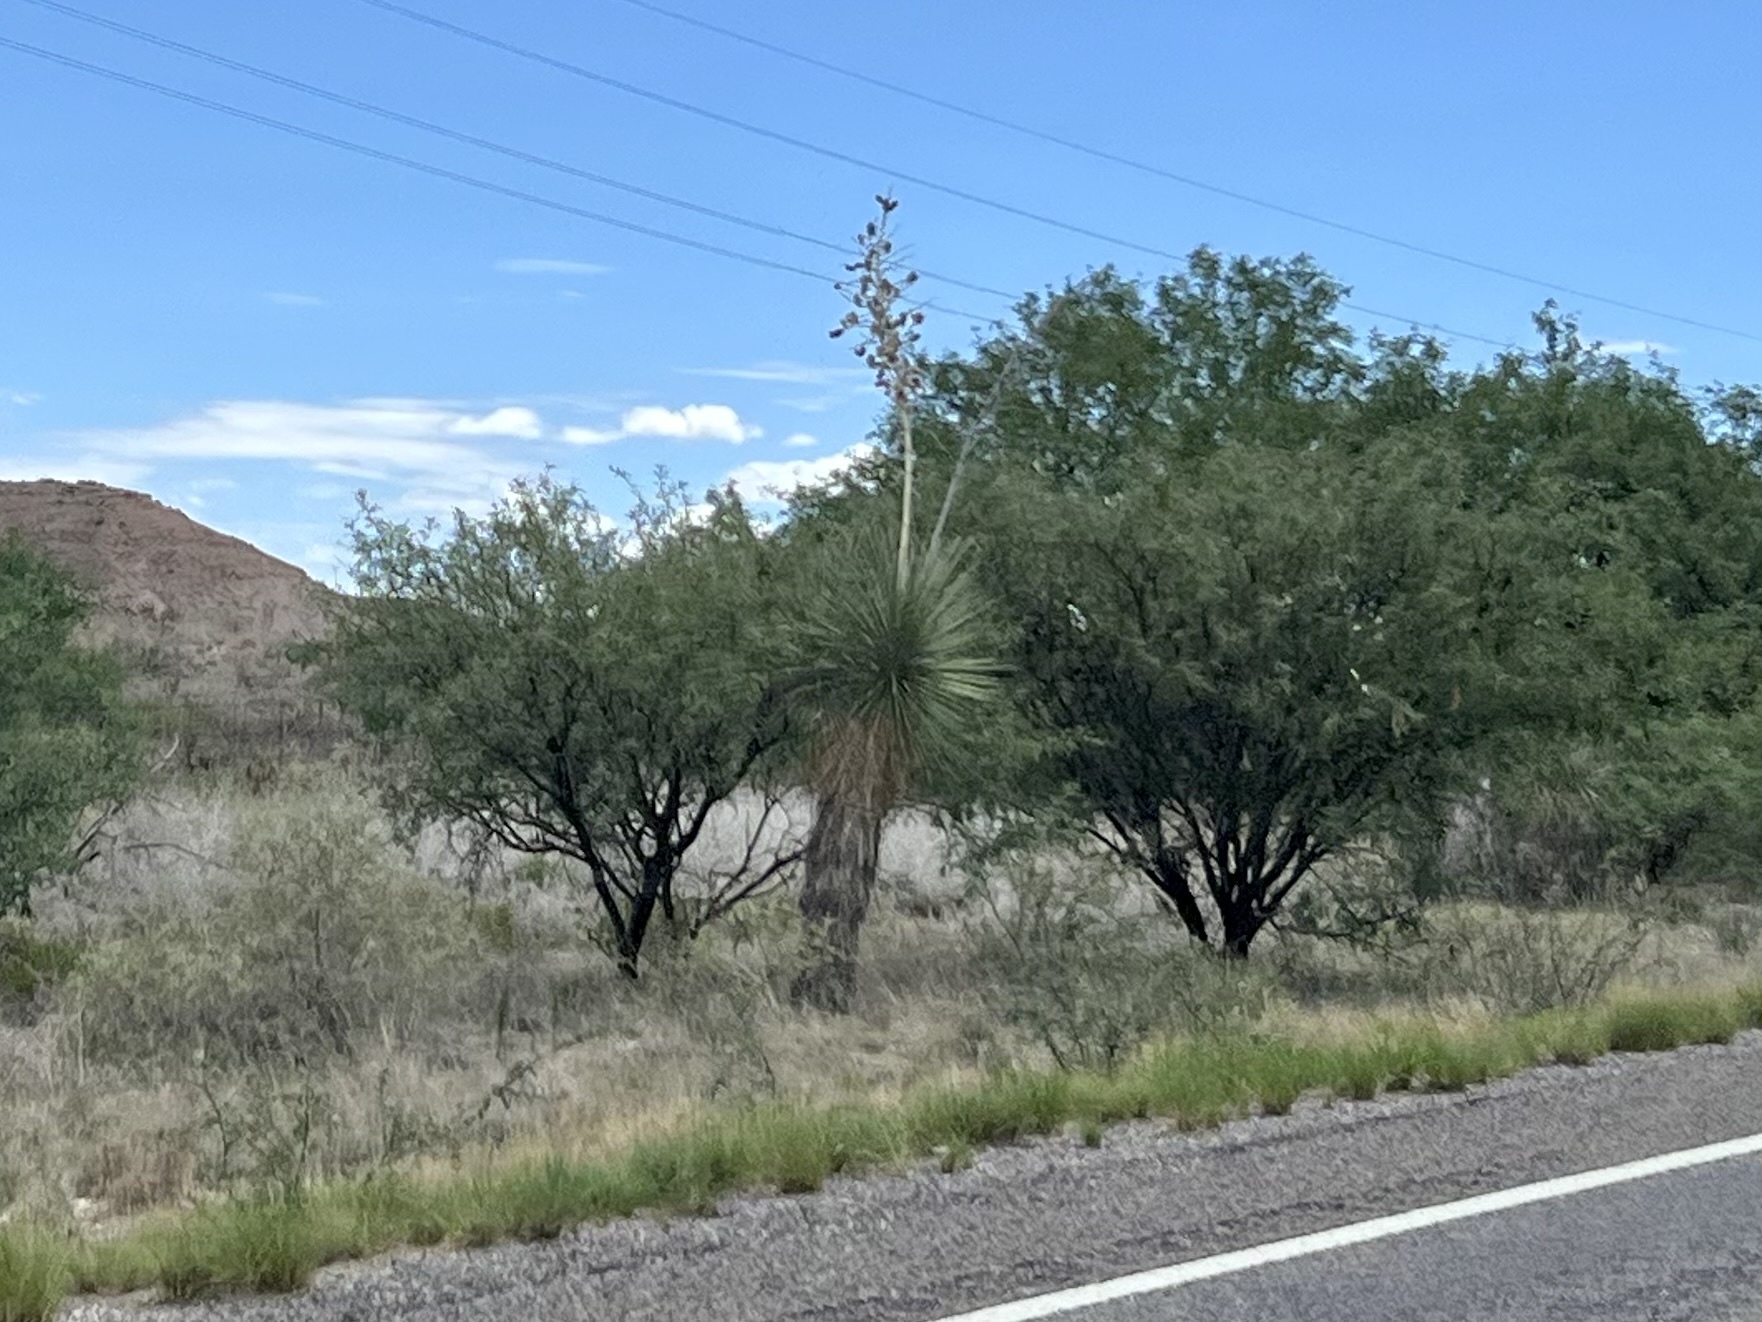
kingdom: Plantae
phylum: Tracheophyta
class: Liliopsida
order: Asparagales
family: Asparagaceae
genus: Yucca
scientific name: Yucca elata
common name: Palmella
